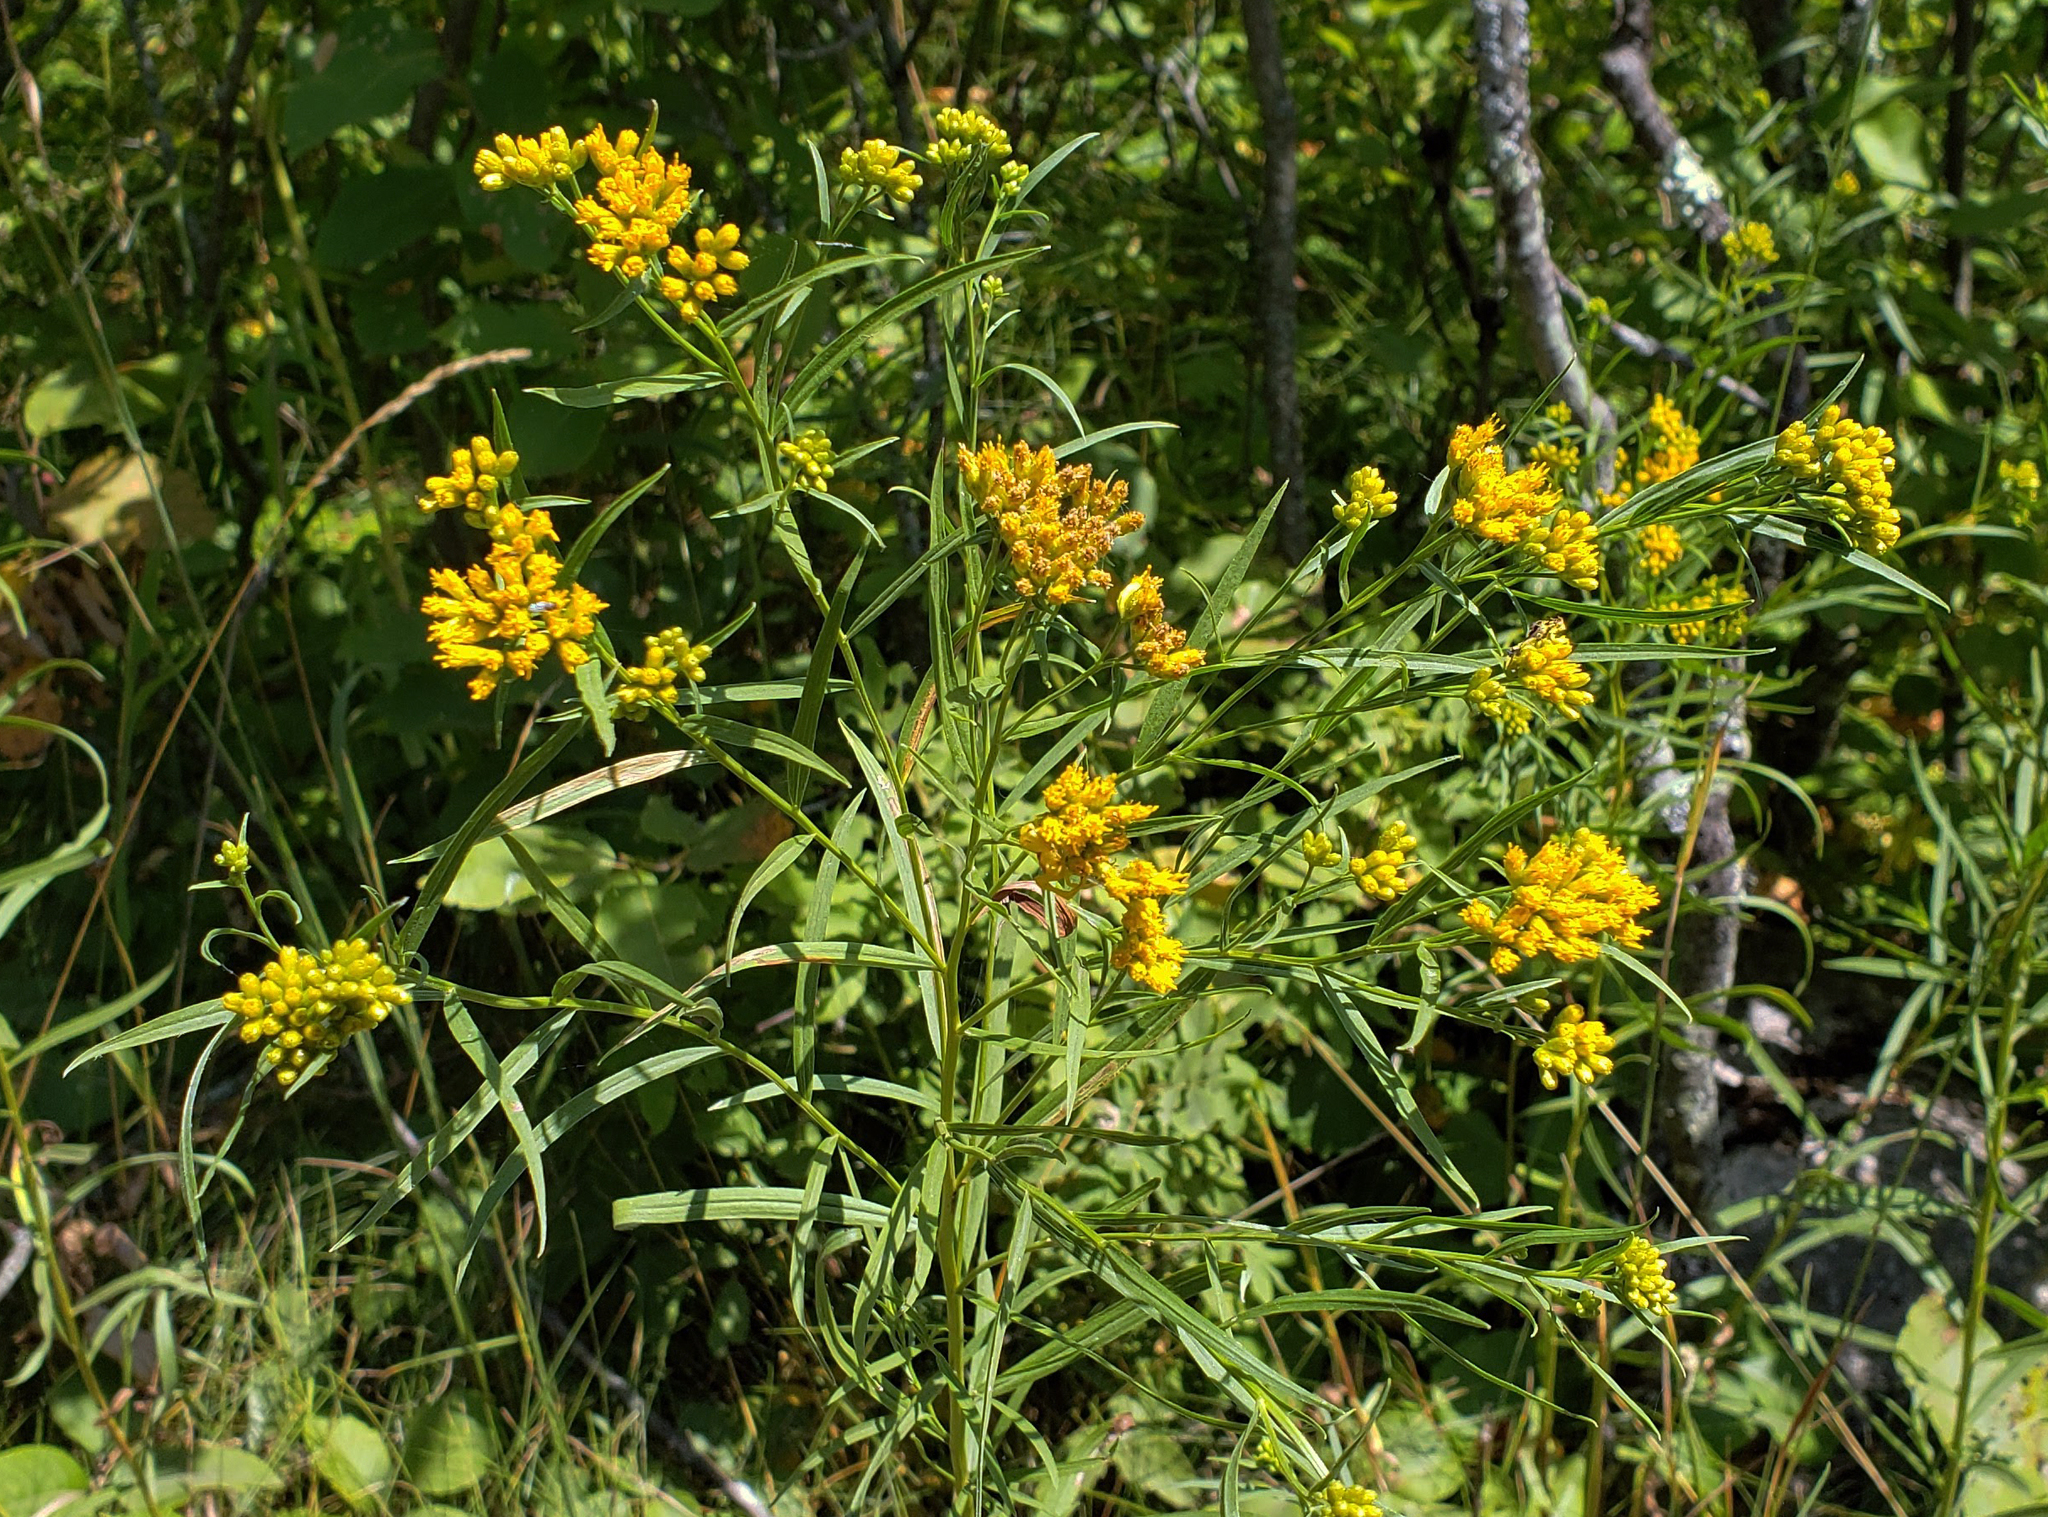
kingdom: Plantae
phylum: Tracheophyta
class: Magnoliopsida
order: Asterales
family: Asteraceae
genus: Euthamia
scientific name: Euthamia graminifolia
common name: Common goldentop
